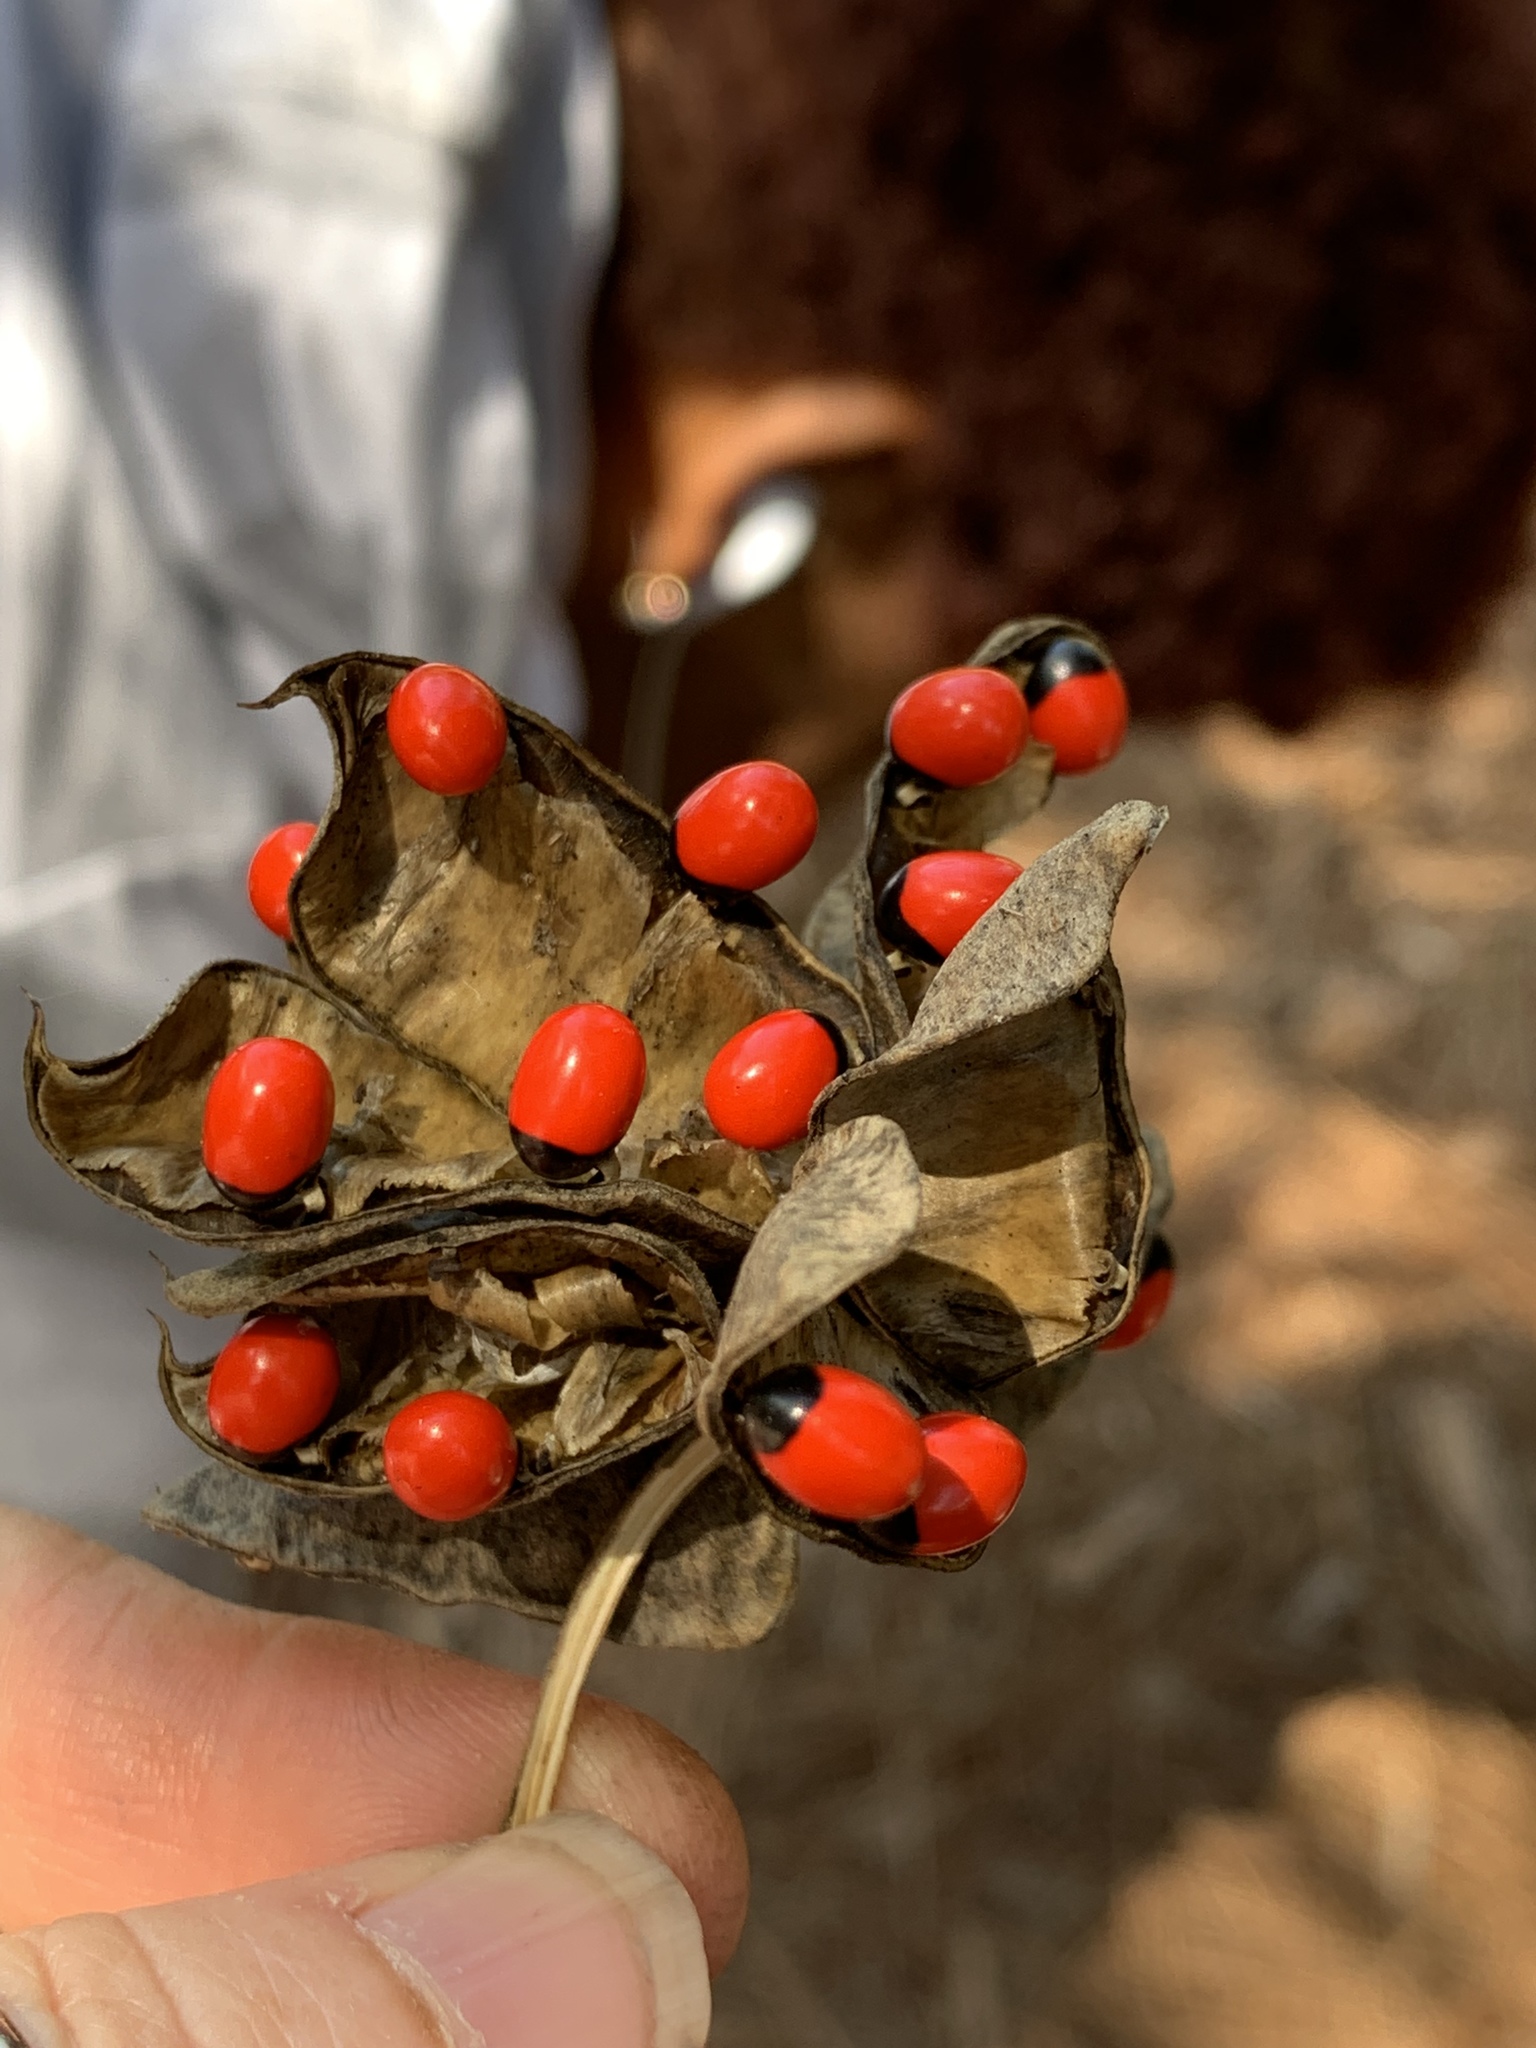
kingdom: Plantae
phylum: Tracheophyta
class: Magnoliopsida
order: Fabales
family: Fabaceae
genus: Abrus
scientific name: Abrus precatorius
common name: Rosarypea
